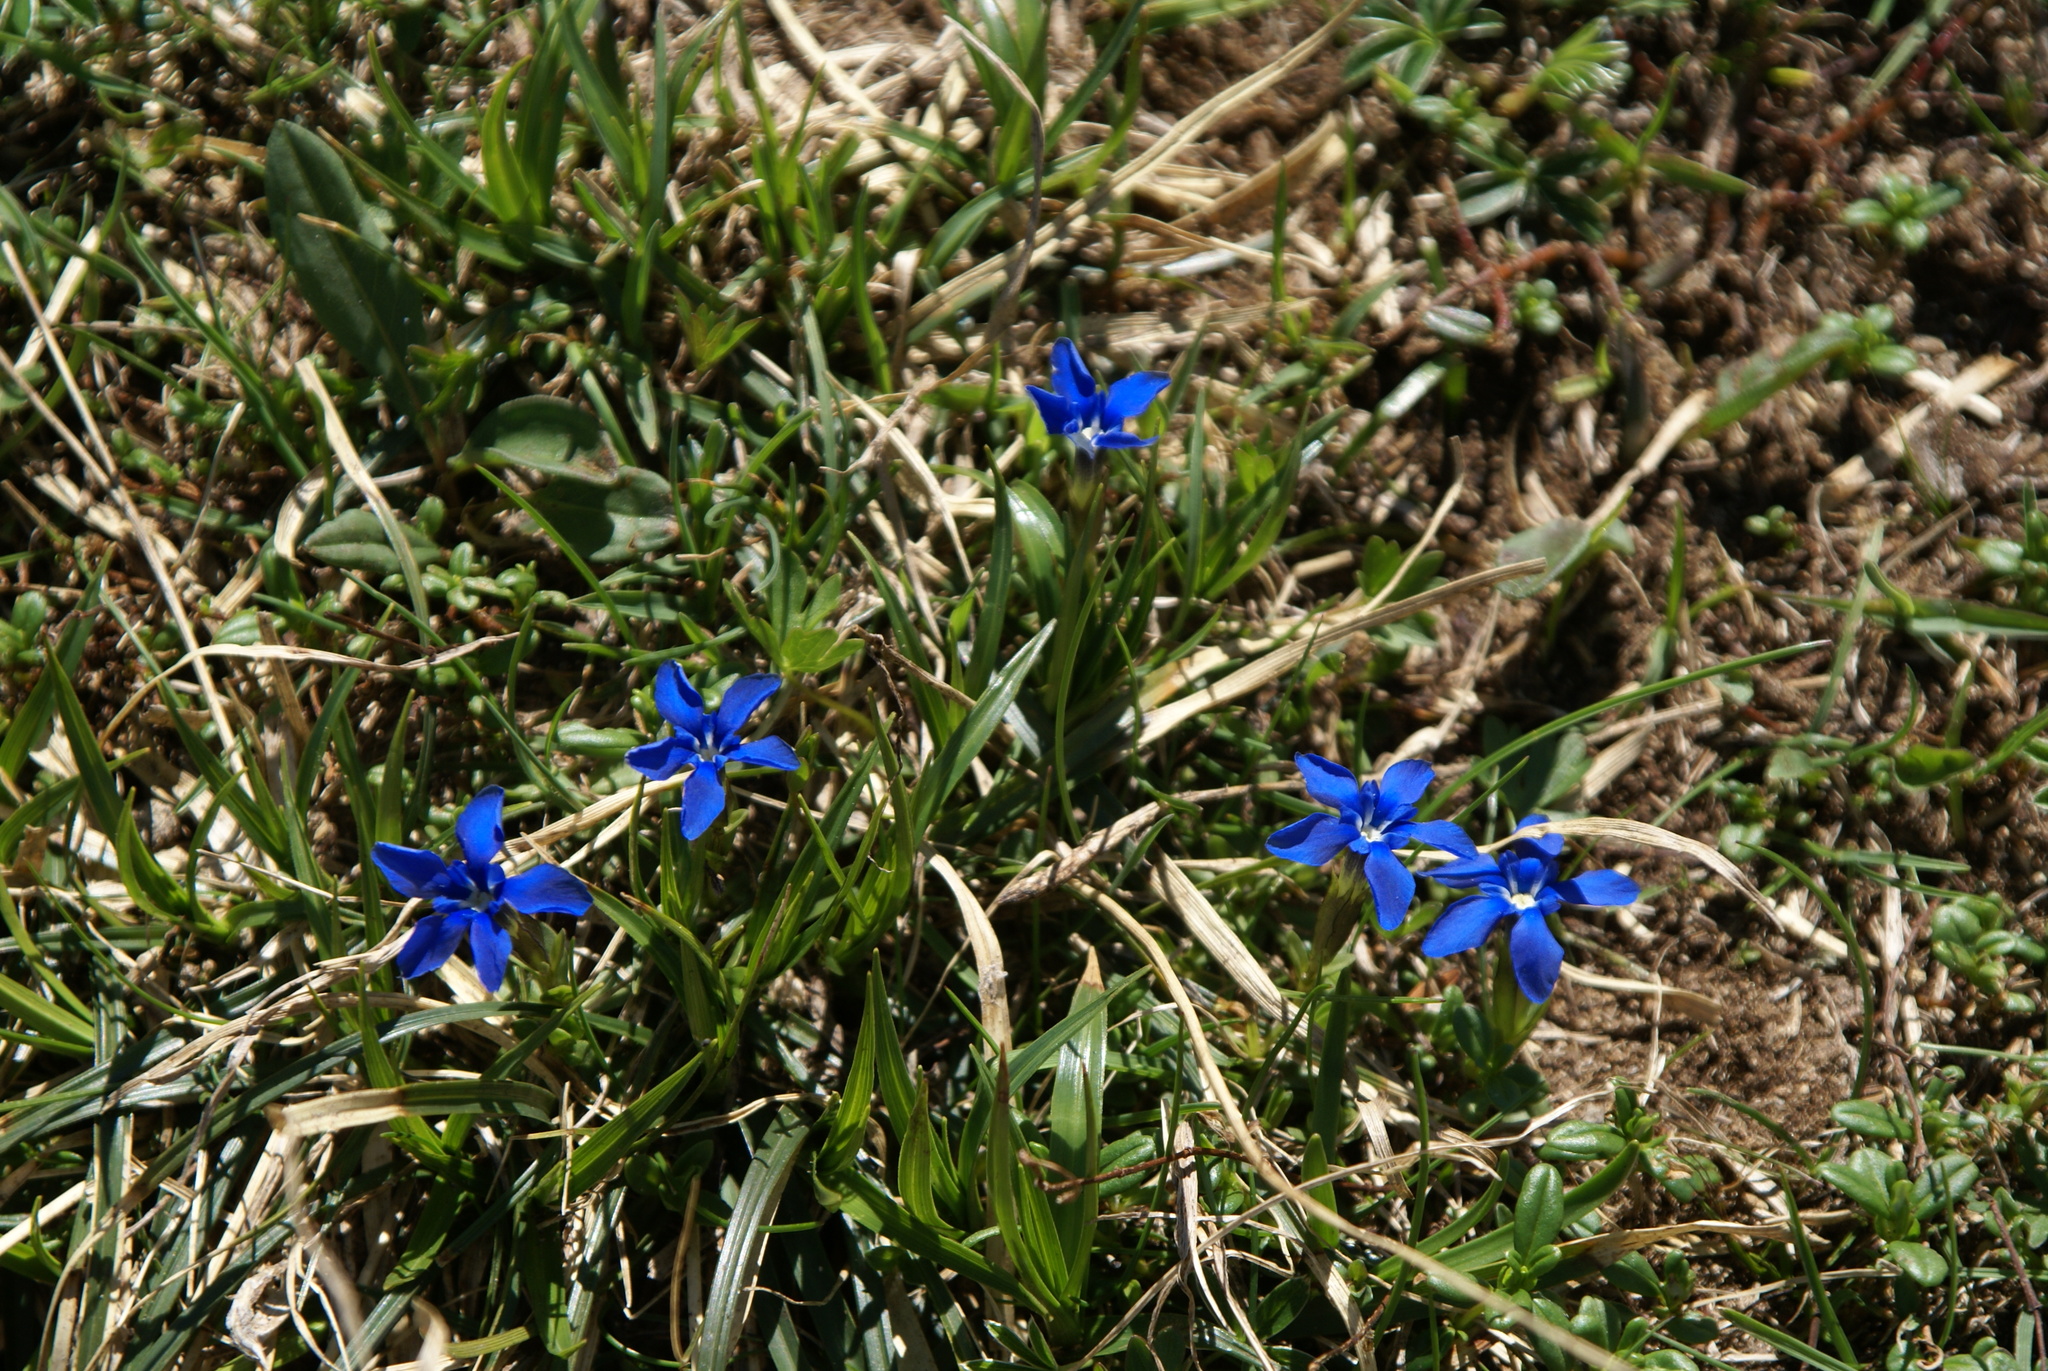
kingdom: Plantae
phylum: Tracheophyta
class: Magnoliopsida
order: Gentianales
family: Gentianaceae
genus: Gentiana
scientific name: Gentiana verna
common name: Spring gentian
